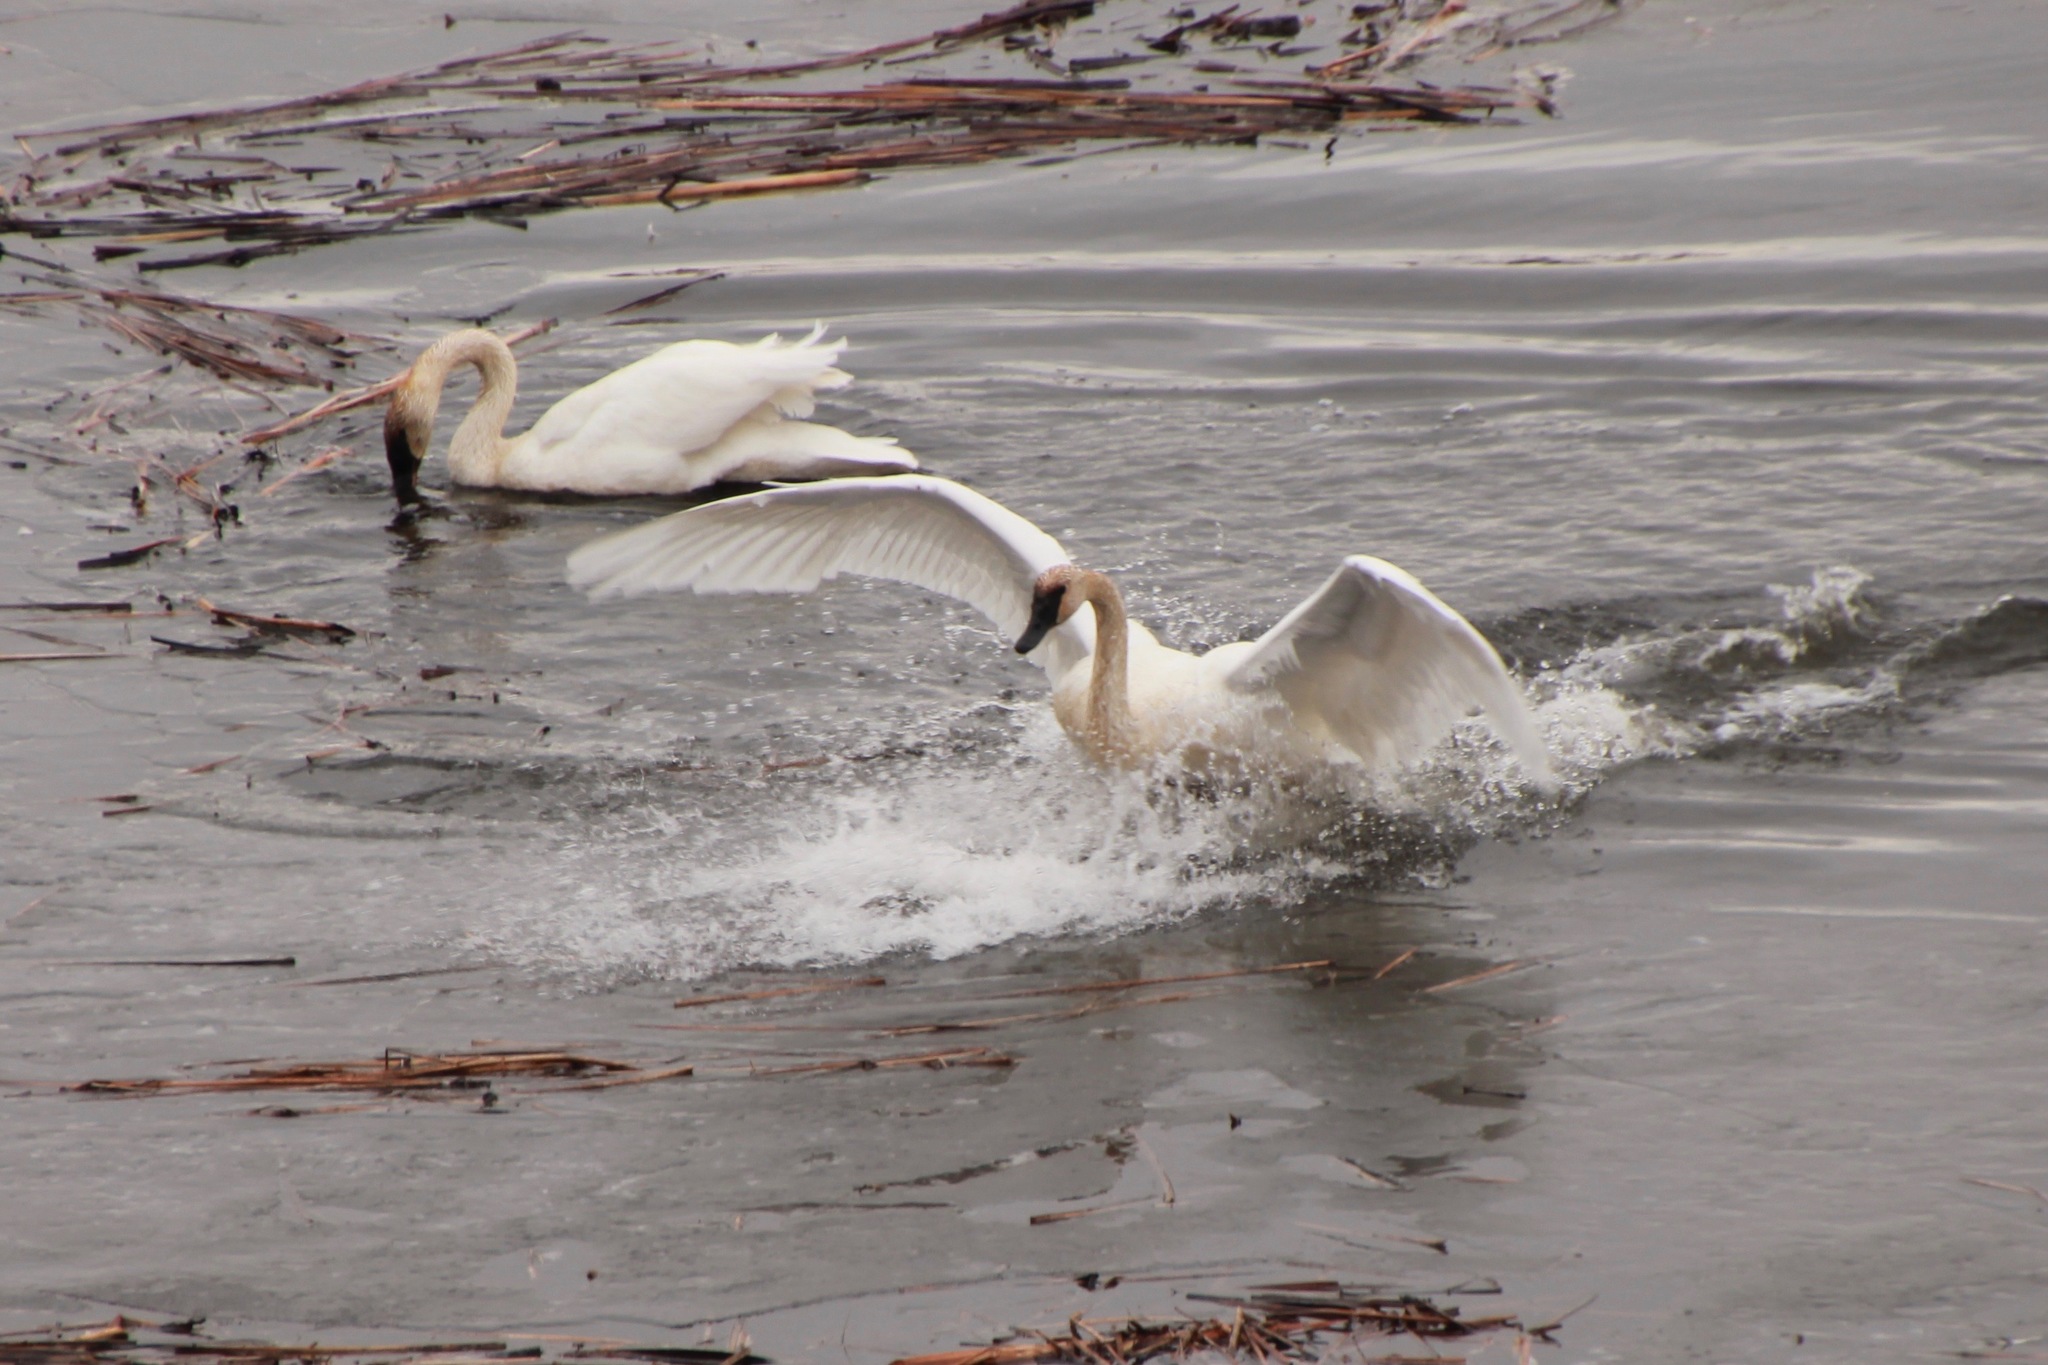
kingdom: Animalia
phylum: Chordata
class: Aves
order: Anseriformes
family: Anatidae
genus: Cygnus
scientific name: Cygnus buccinator
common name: Trumpeter swan
